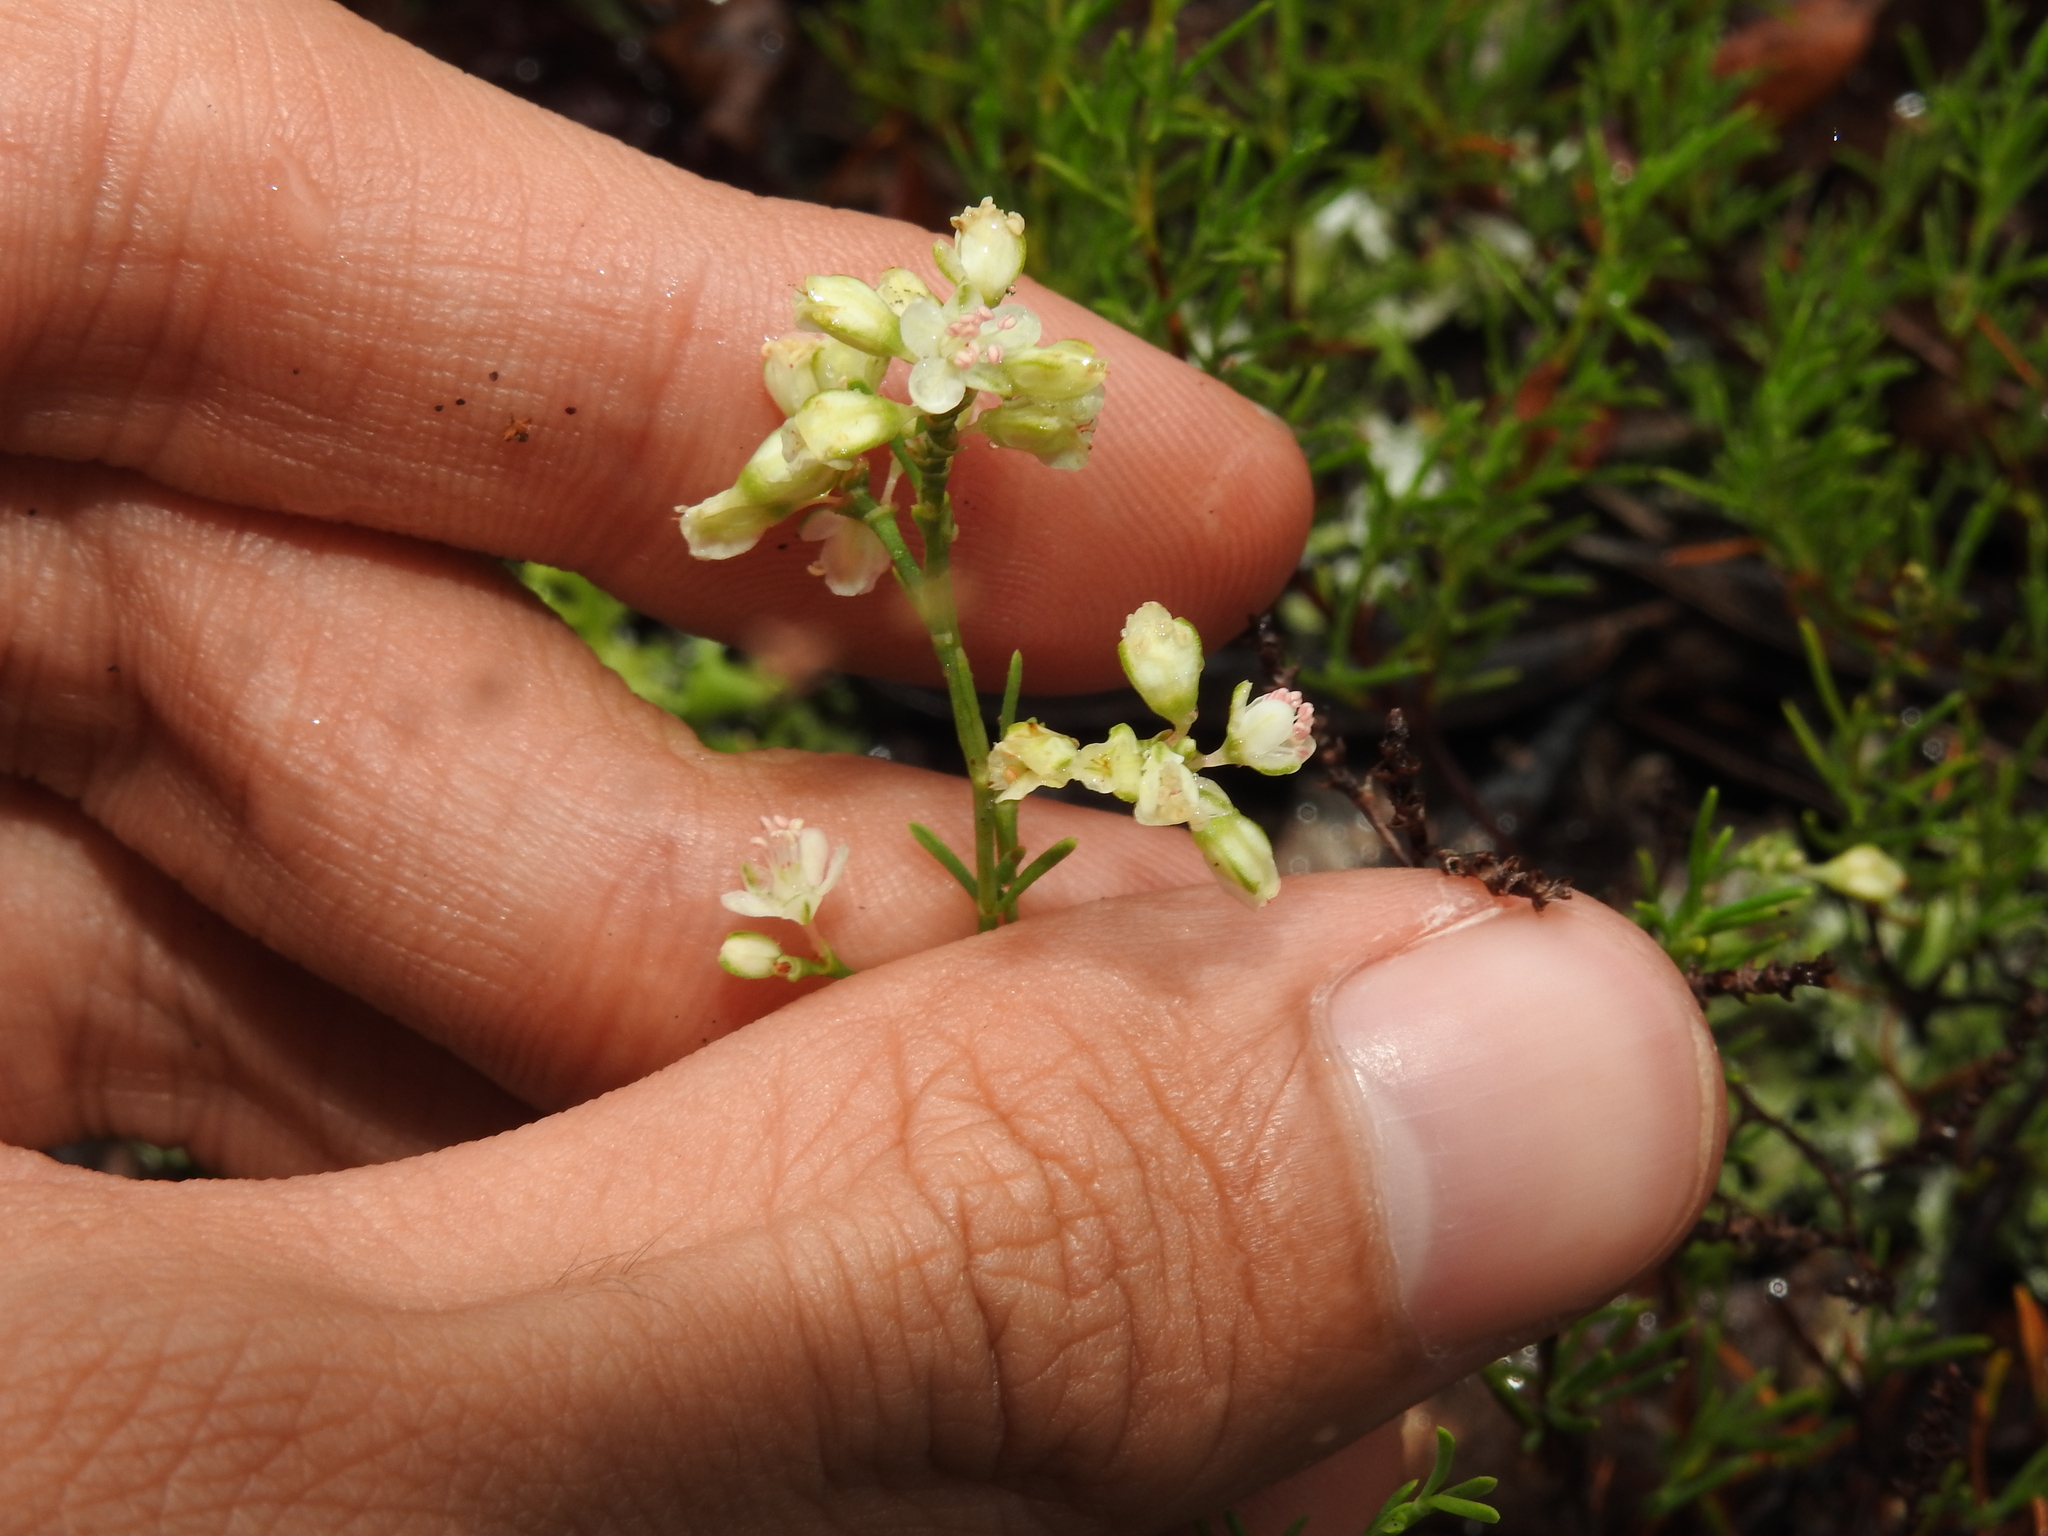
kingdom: Plantae
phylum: Tracheophyta
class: Magnoliopsida
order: Caryophyllales
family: Polygonaceae
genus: Polygonella
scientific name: Polygonella myriophylla
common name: Sandlace
